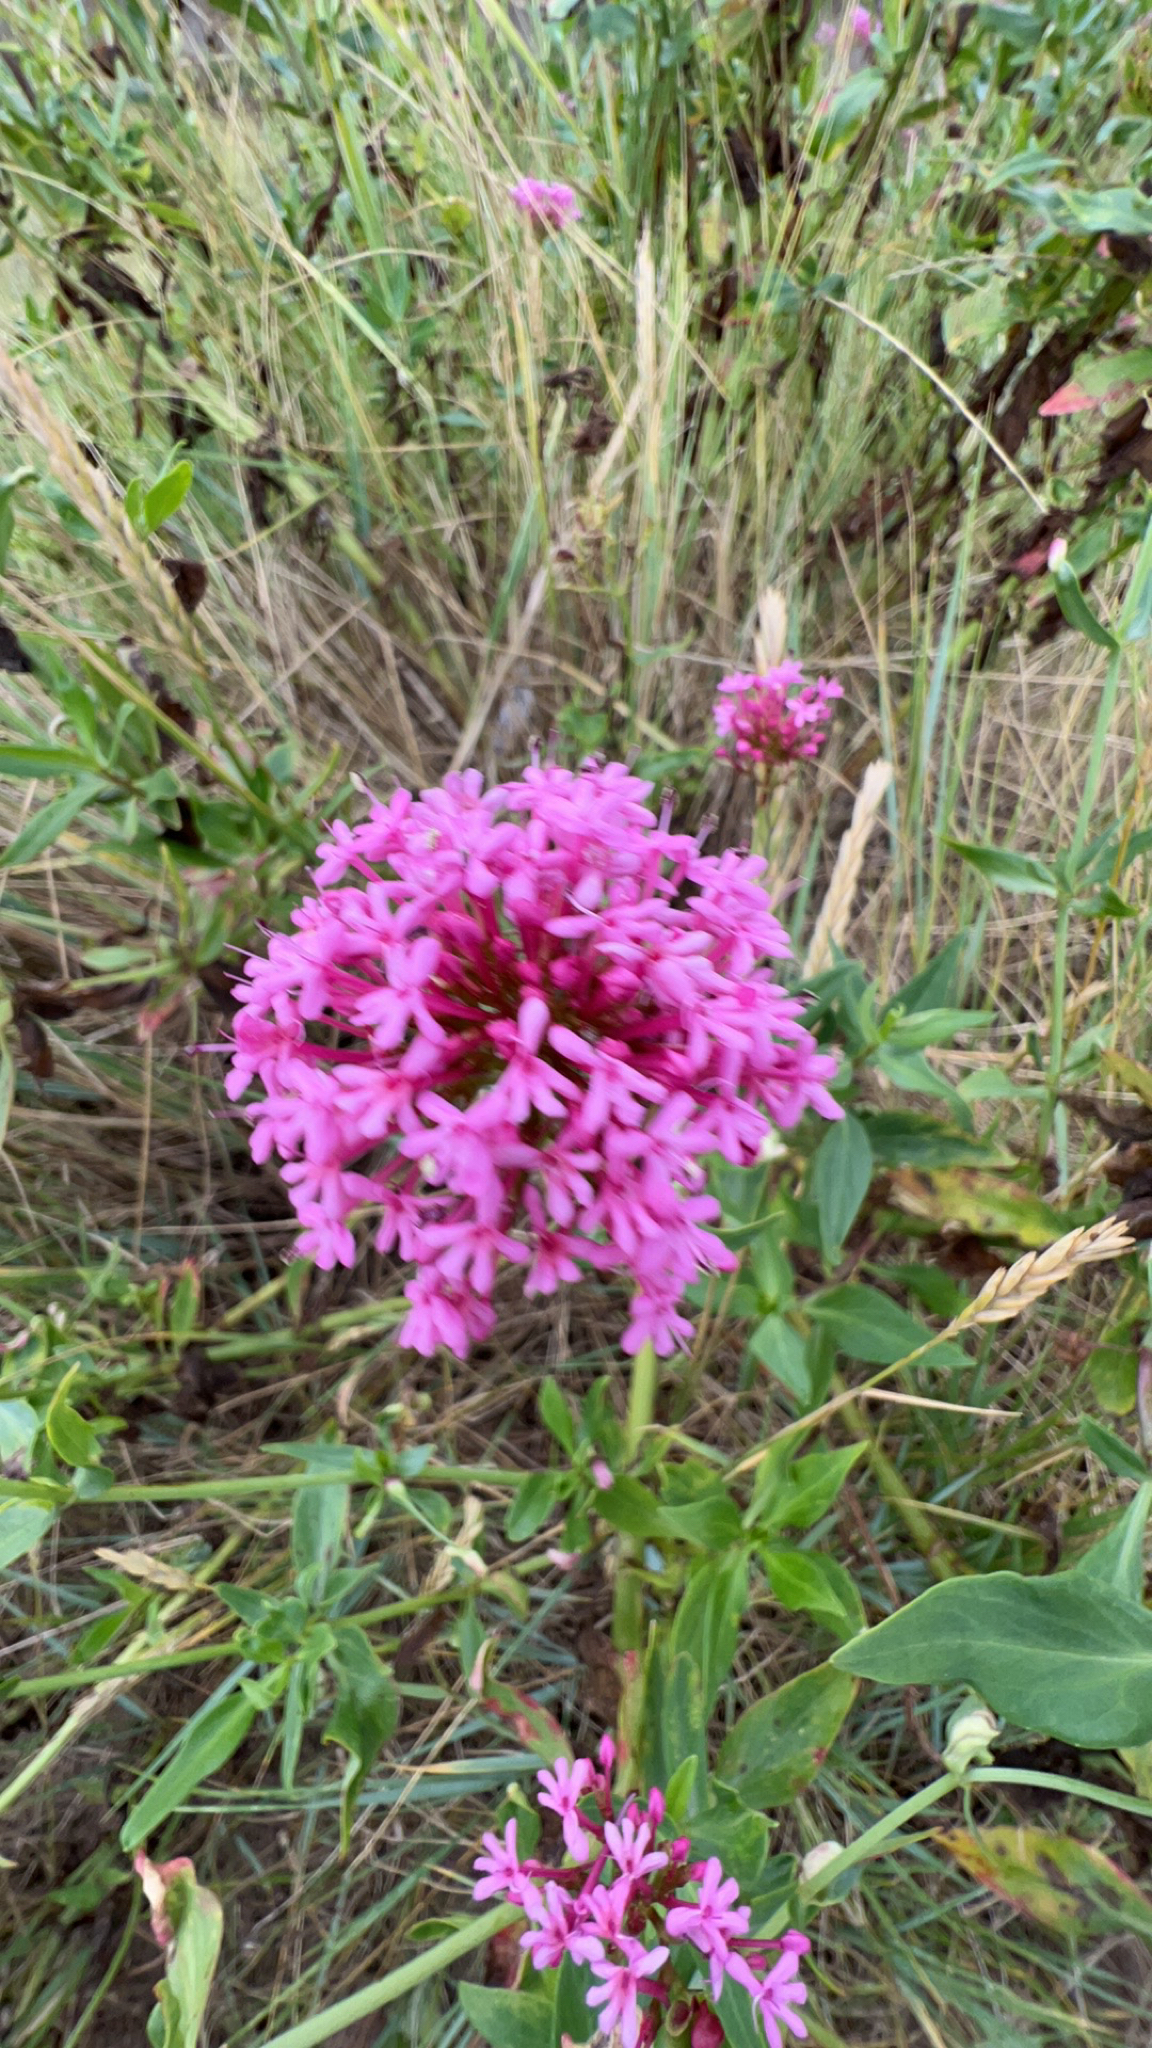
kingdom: Plantae
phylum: Tracheophyta
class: Magnoliopsida
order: Dipsacales
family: Caprifoliaceae
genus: Centranthus
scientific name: Centranthus ruber
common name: Red valerian
